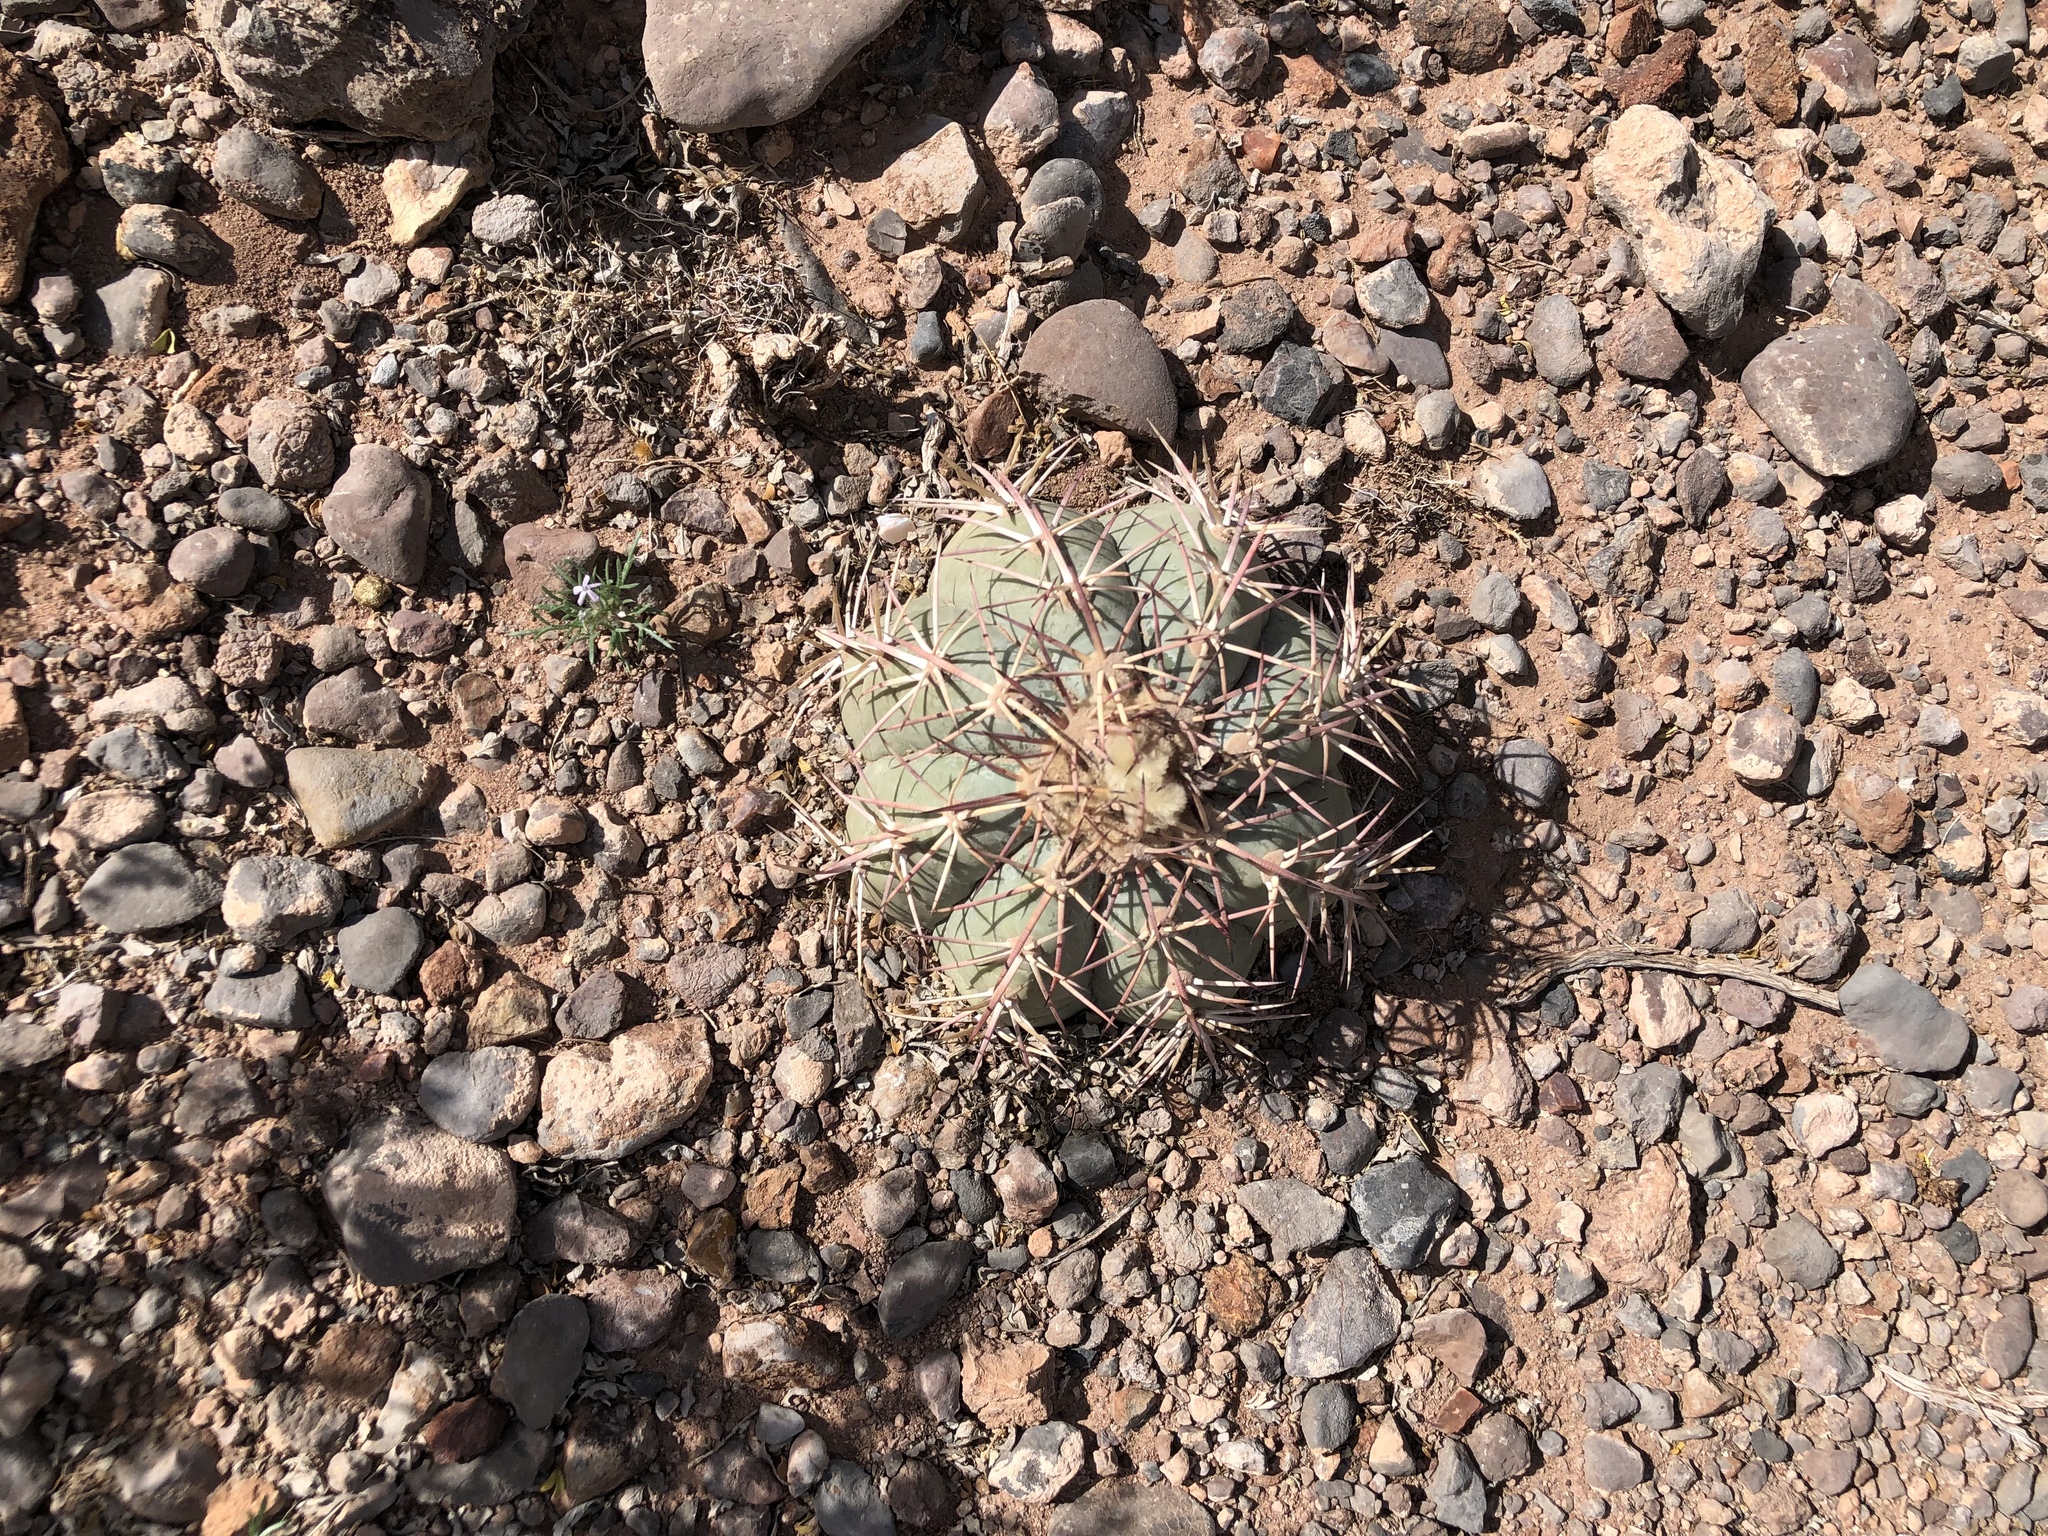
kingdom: Plantae
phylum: Tracheophyta
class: Magnoliopsida
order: Caryophyllales
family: Cactaceae
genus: Echinocactus
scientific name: Echinocactus horizonthalonius
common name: Devilshead
